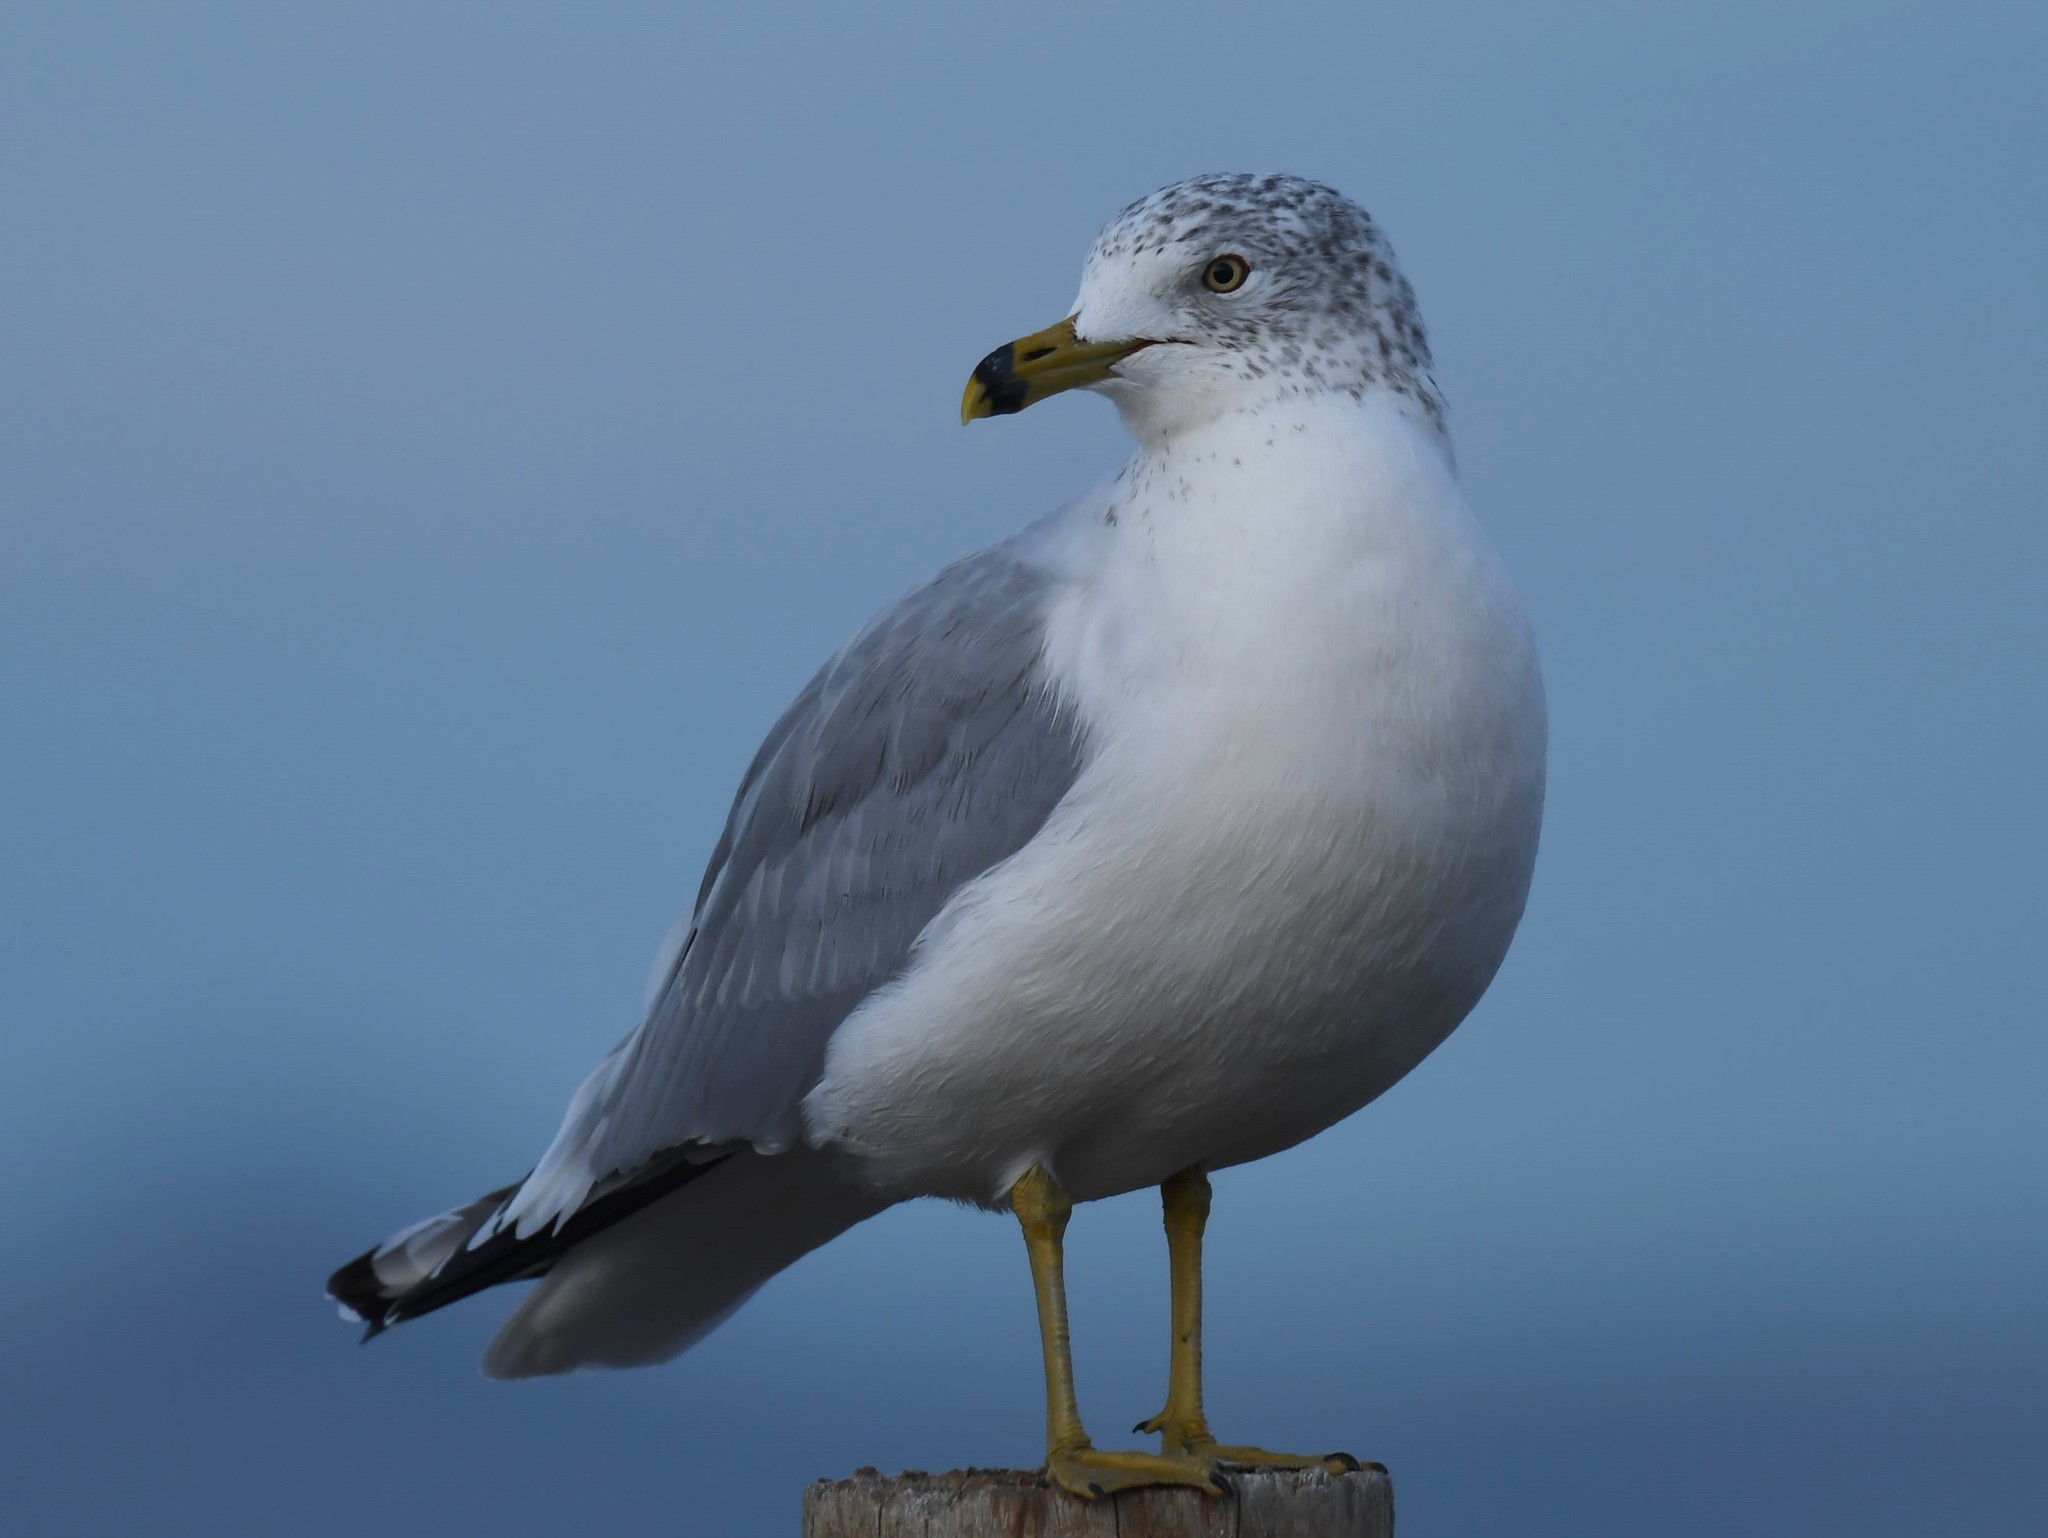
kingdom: Animalia
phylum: Chordata
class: Aves
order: Charadriiformes
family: Laridae
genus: Larus
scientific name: Larus delawarensis
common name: Ring-billed gull
